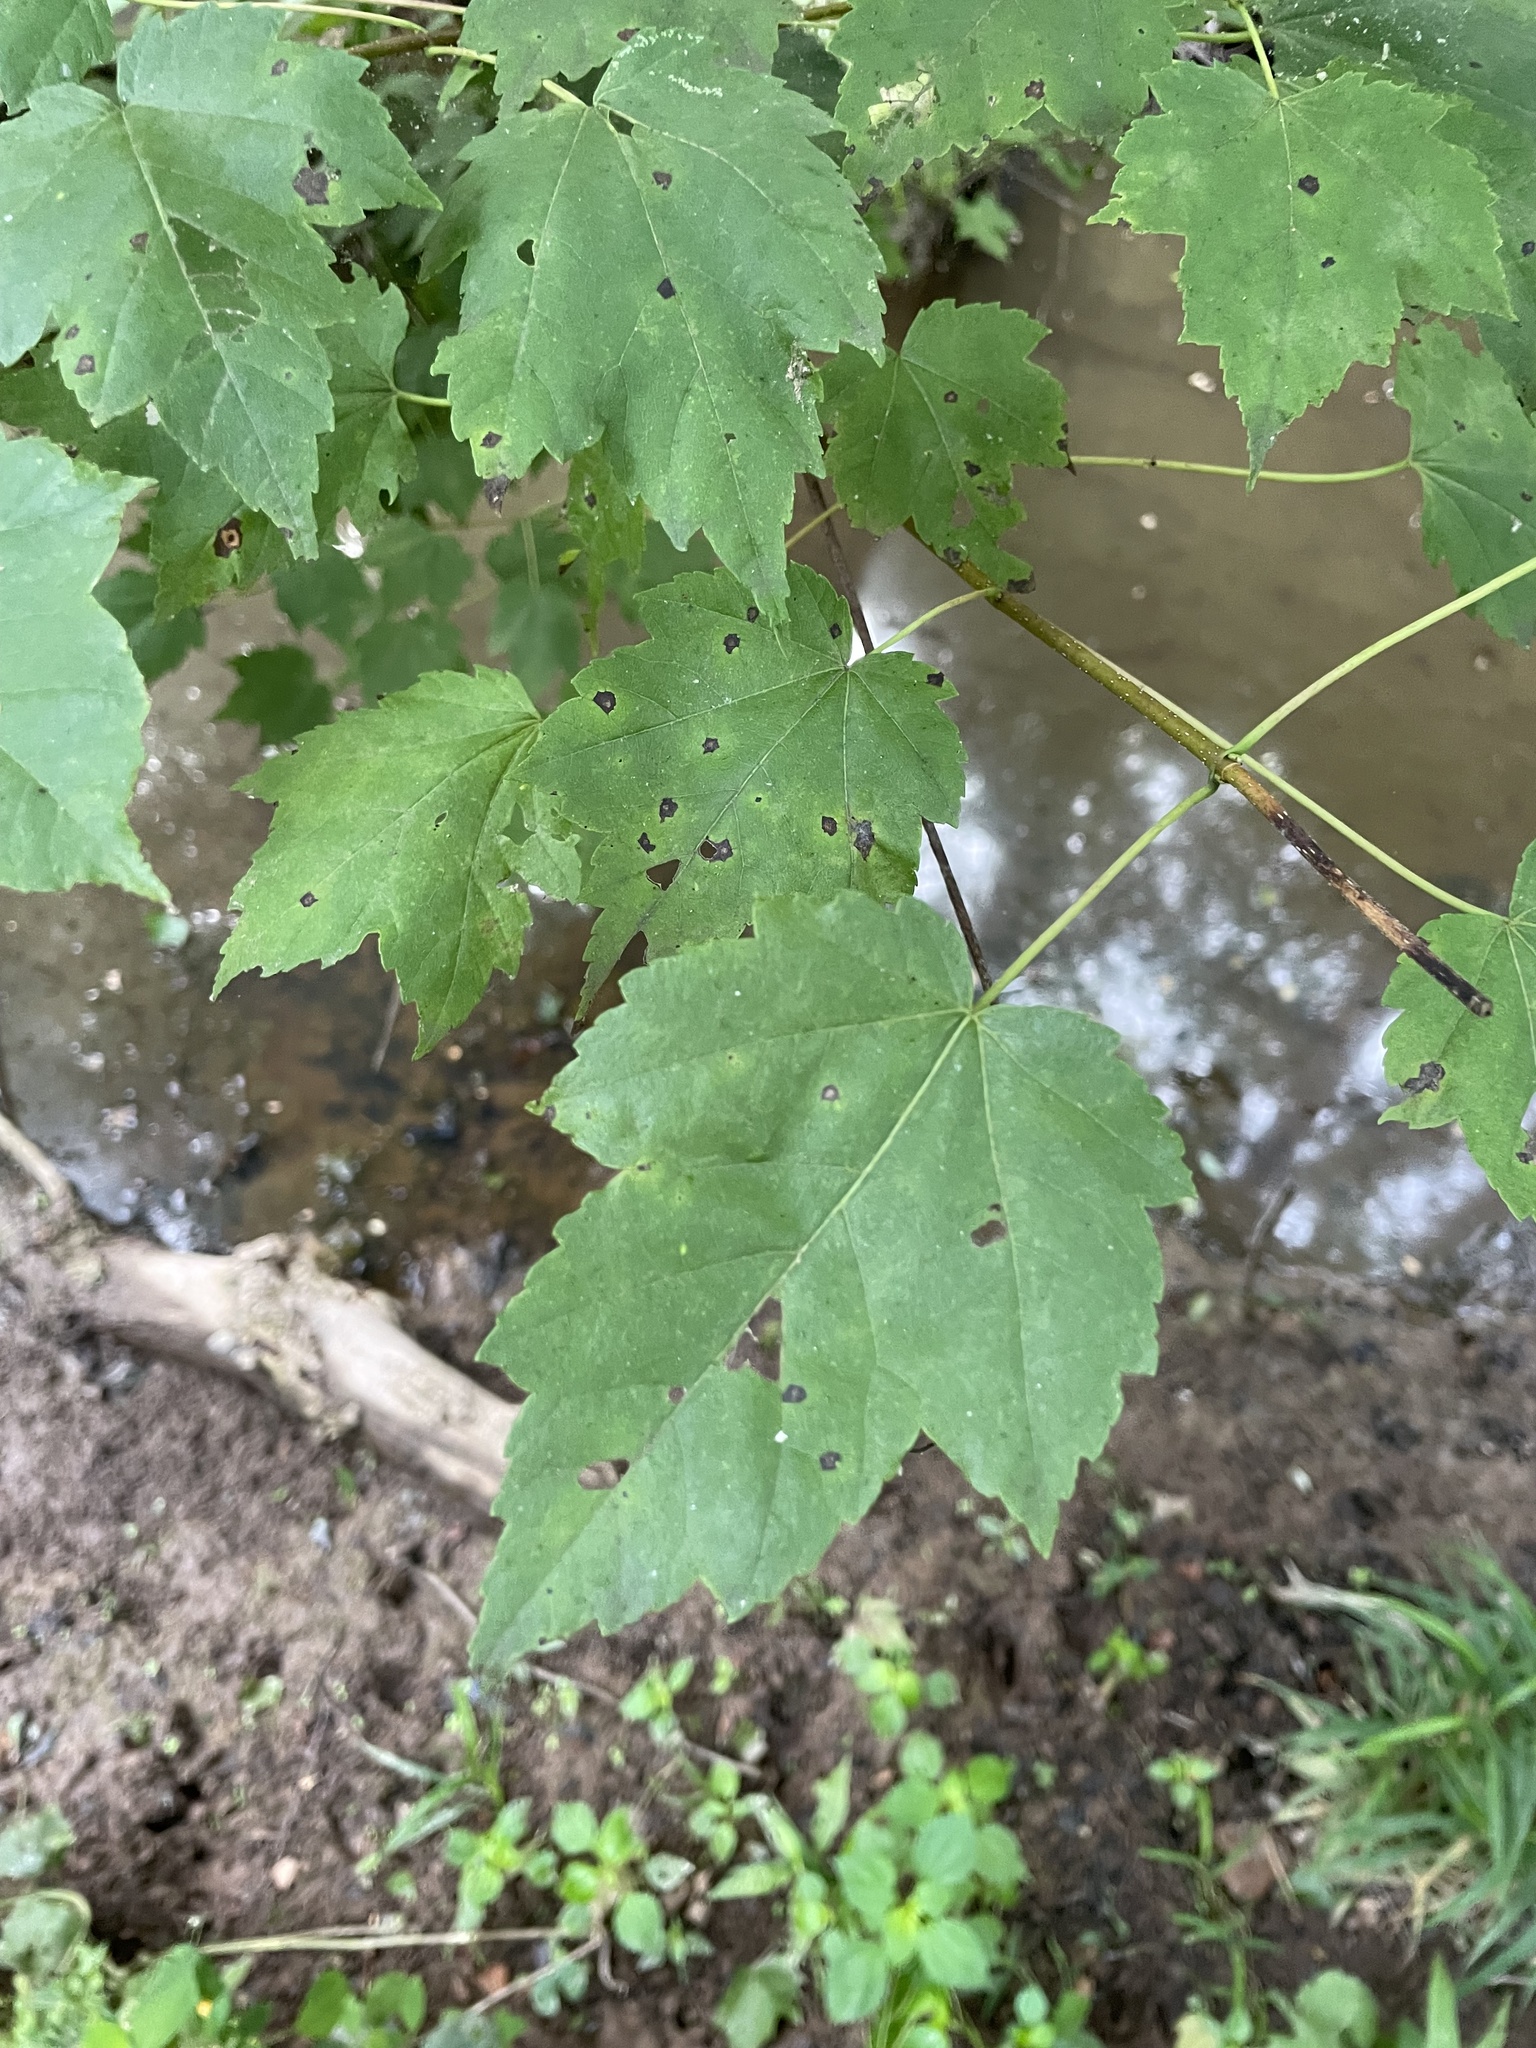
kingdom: Plantae
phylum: Tracheophyta
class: Magnoliopsida
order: Sapindales
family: Sapindaceae
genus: Acer
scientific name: Acer rubrum
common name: Red maple
